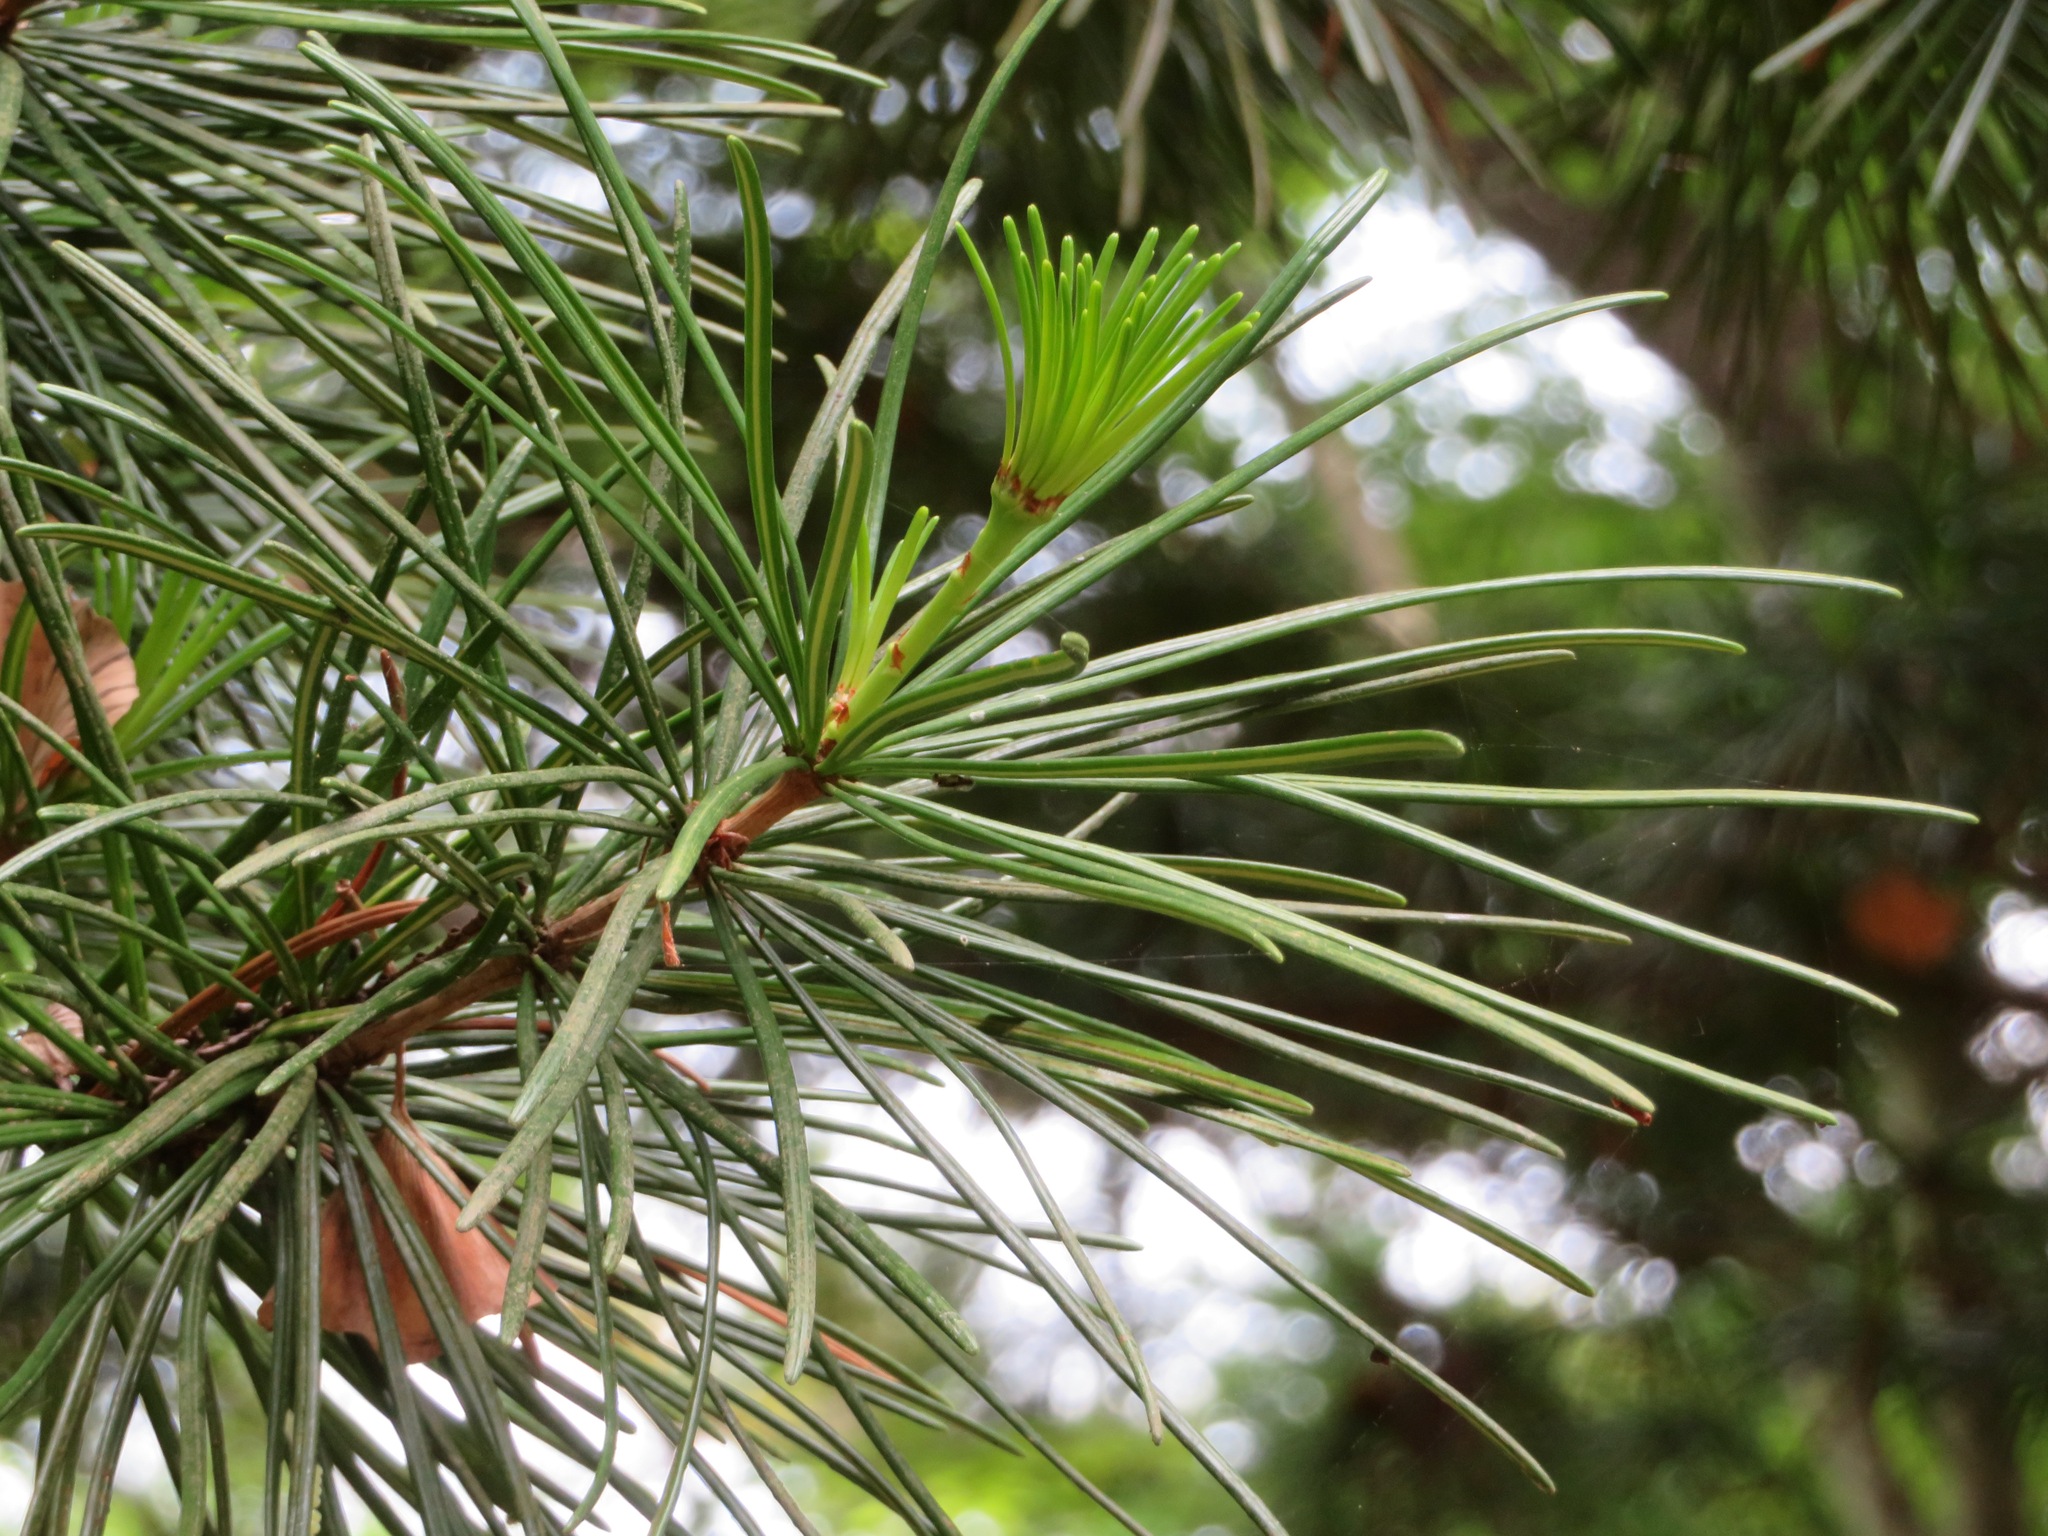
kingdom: Plantae
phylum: Tracheophyta
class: Pinopsida
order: Pinales
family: Sciadopityaceae
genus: Sciadopitys
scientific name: Sciadopitys verticillata
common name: Japanese umbrella pine
